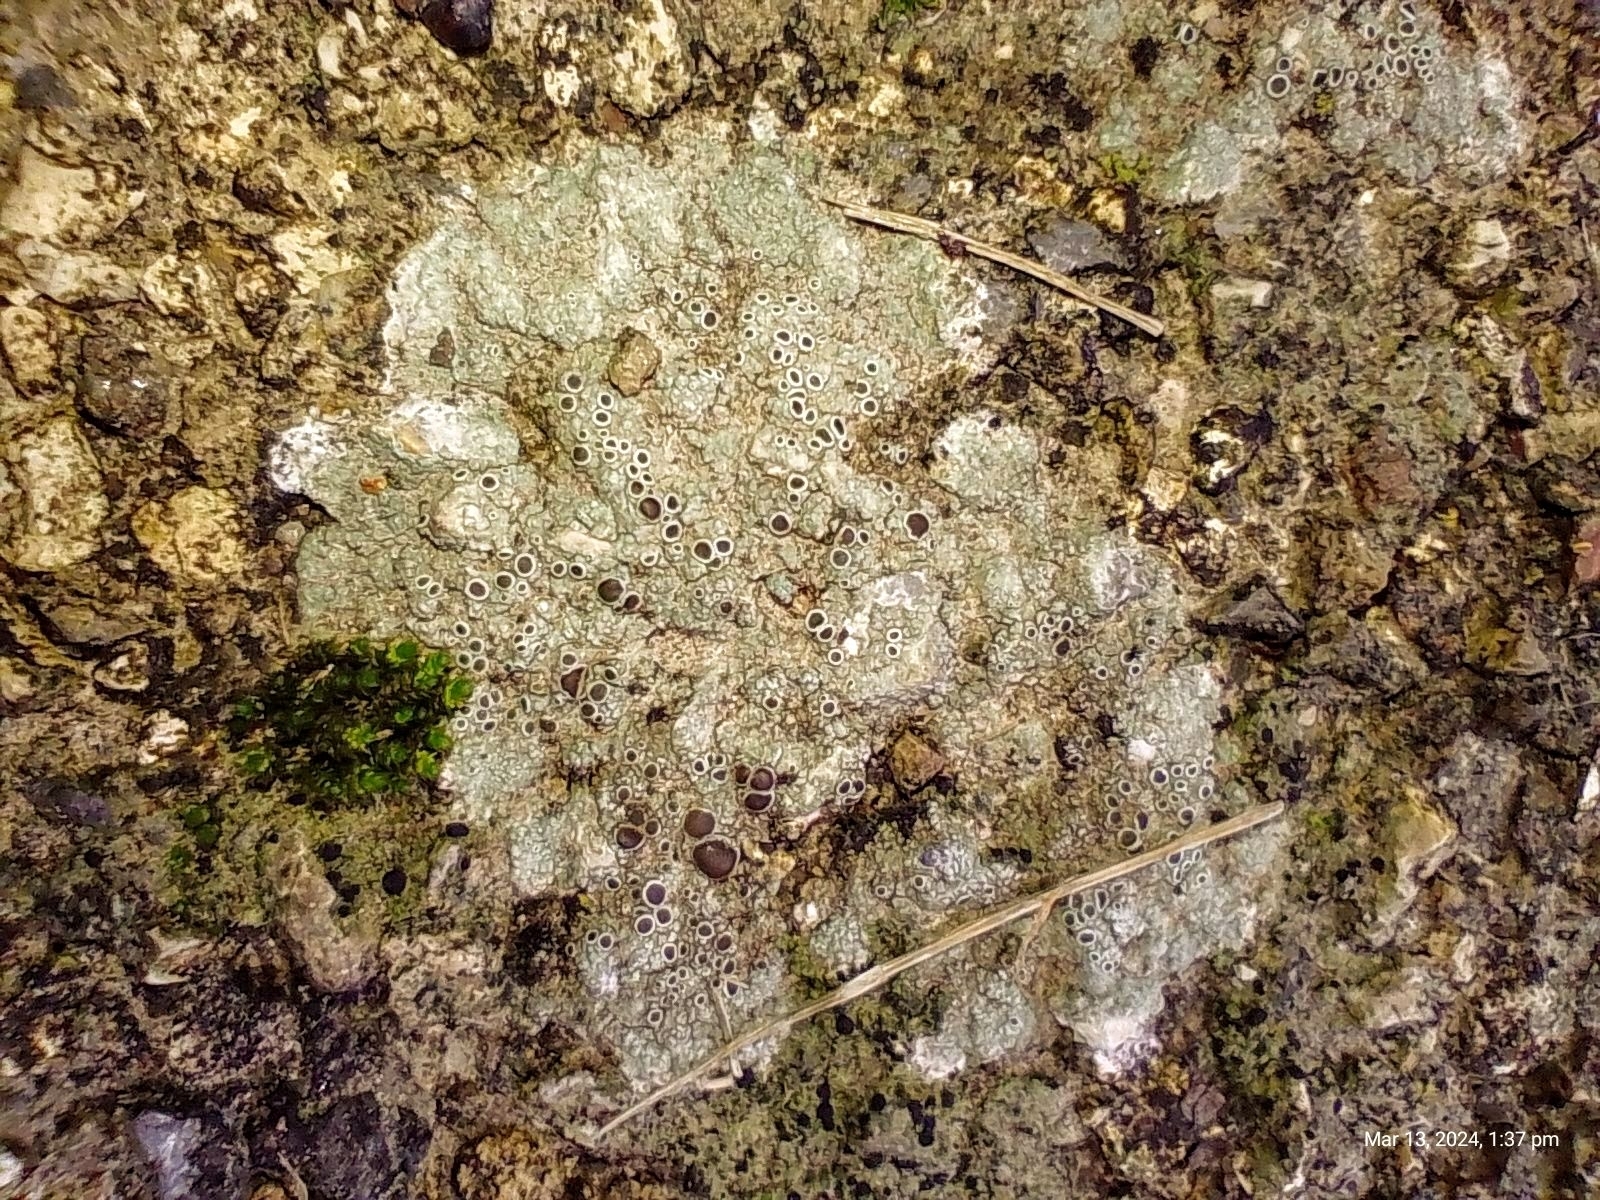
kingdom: Fungi
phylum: Ascomycota
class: Lecanoromycetes
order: Lecanorales
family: Lecanoraceae
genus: Lecanora
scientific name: Lecanora campestris
